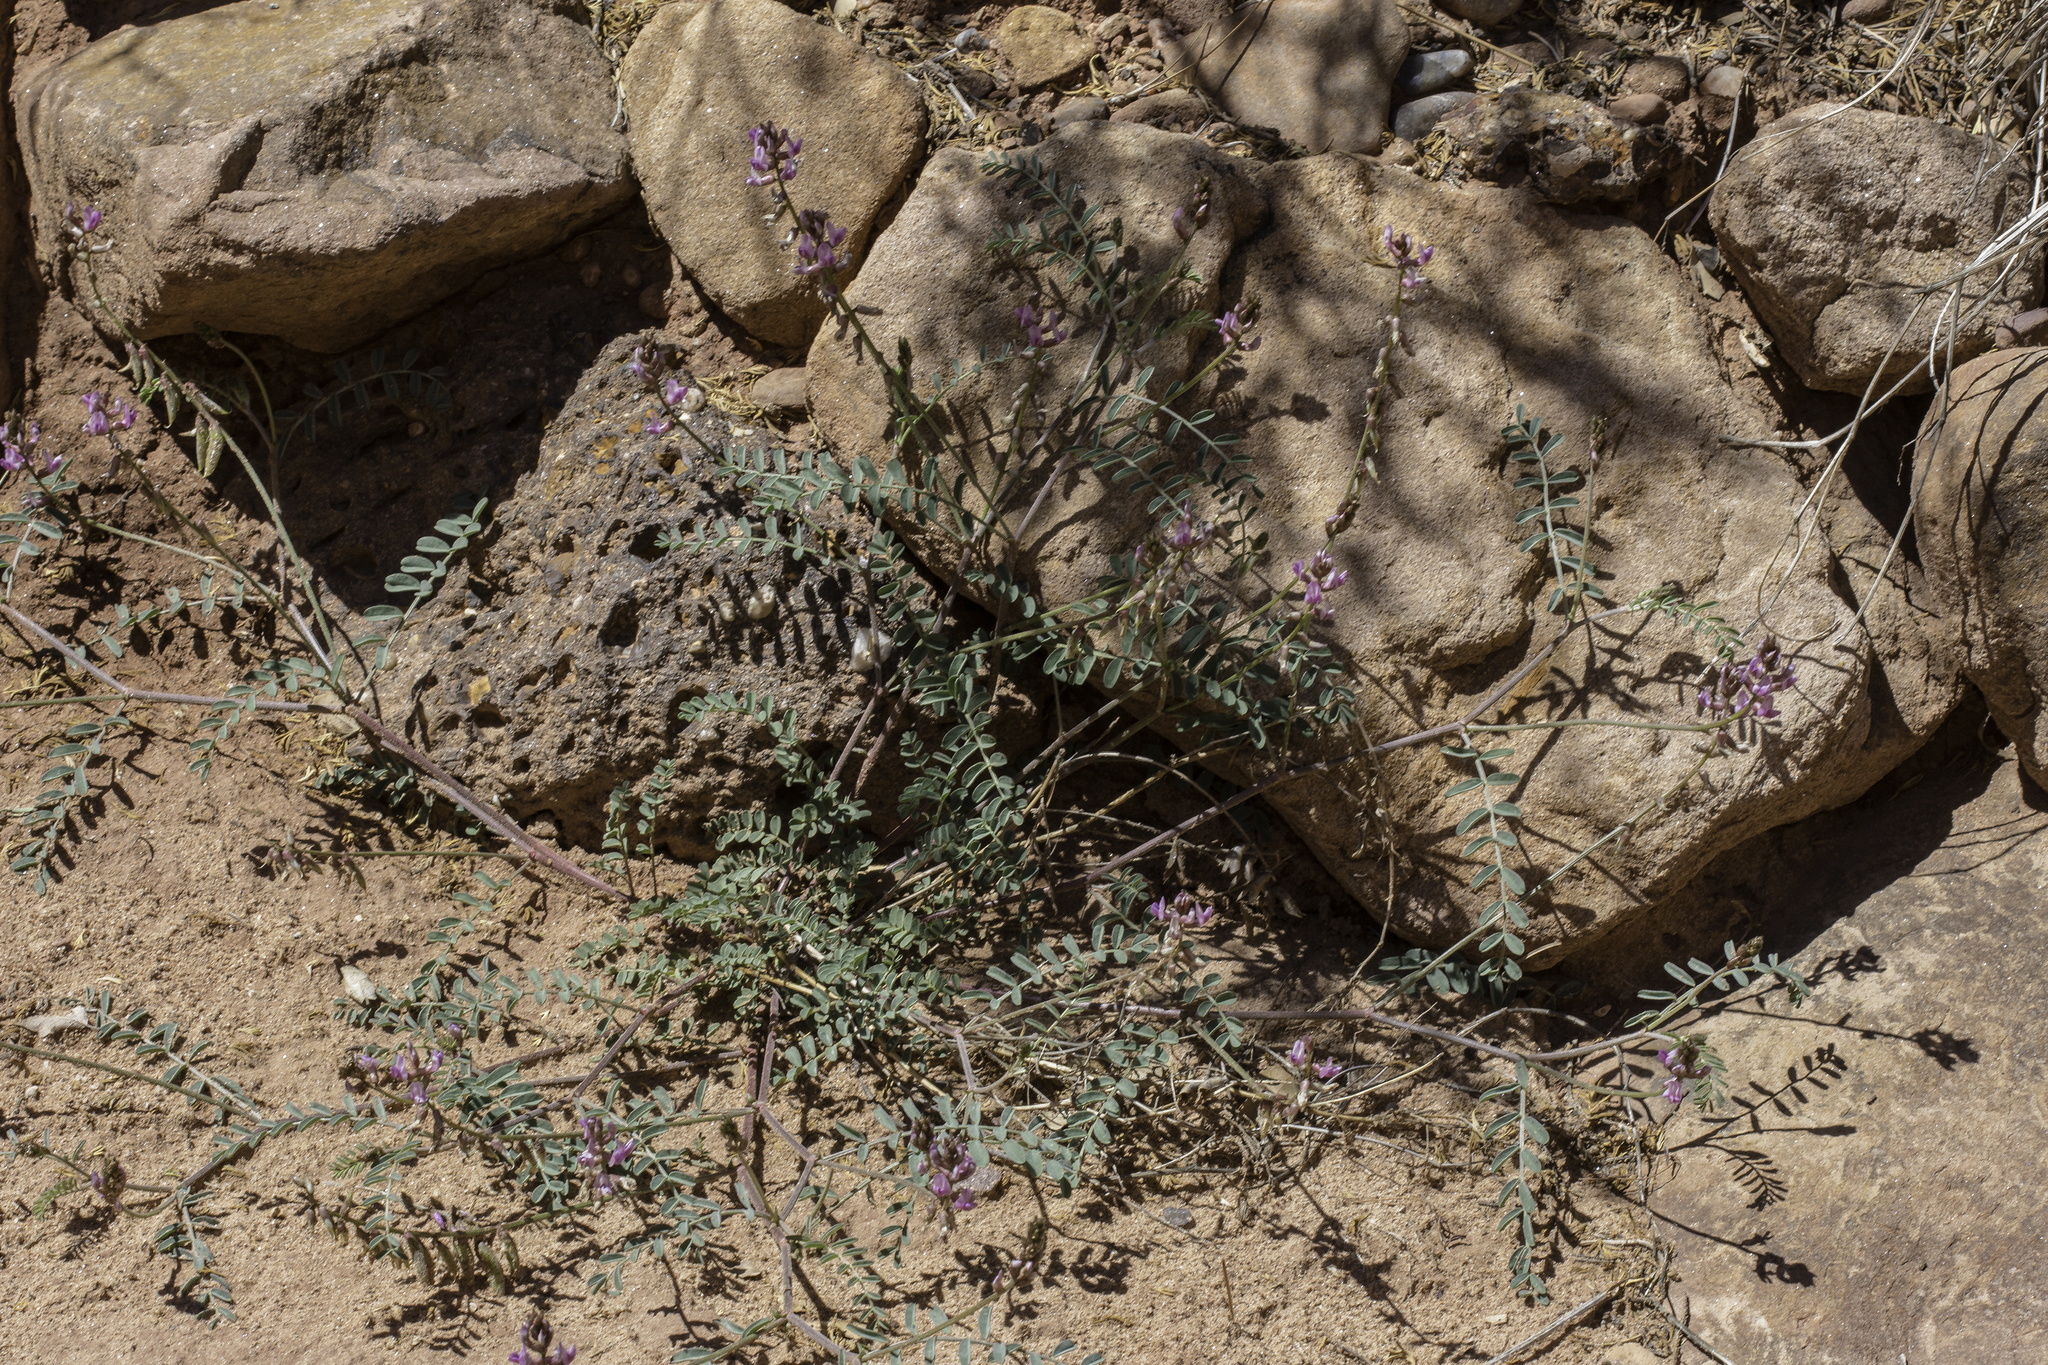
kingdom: Plantae
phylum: Tracheophyta
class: Magnoliopsida
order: Fabales
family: Fabaceae
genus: Astragalus
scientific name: Astragalus flexuosus
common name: Pliant milk-vetch
